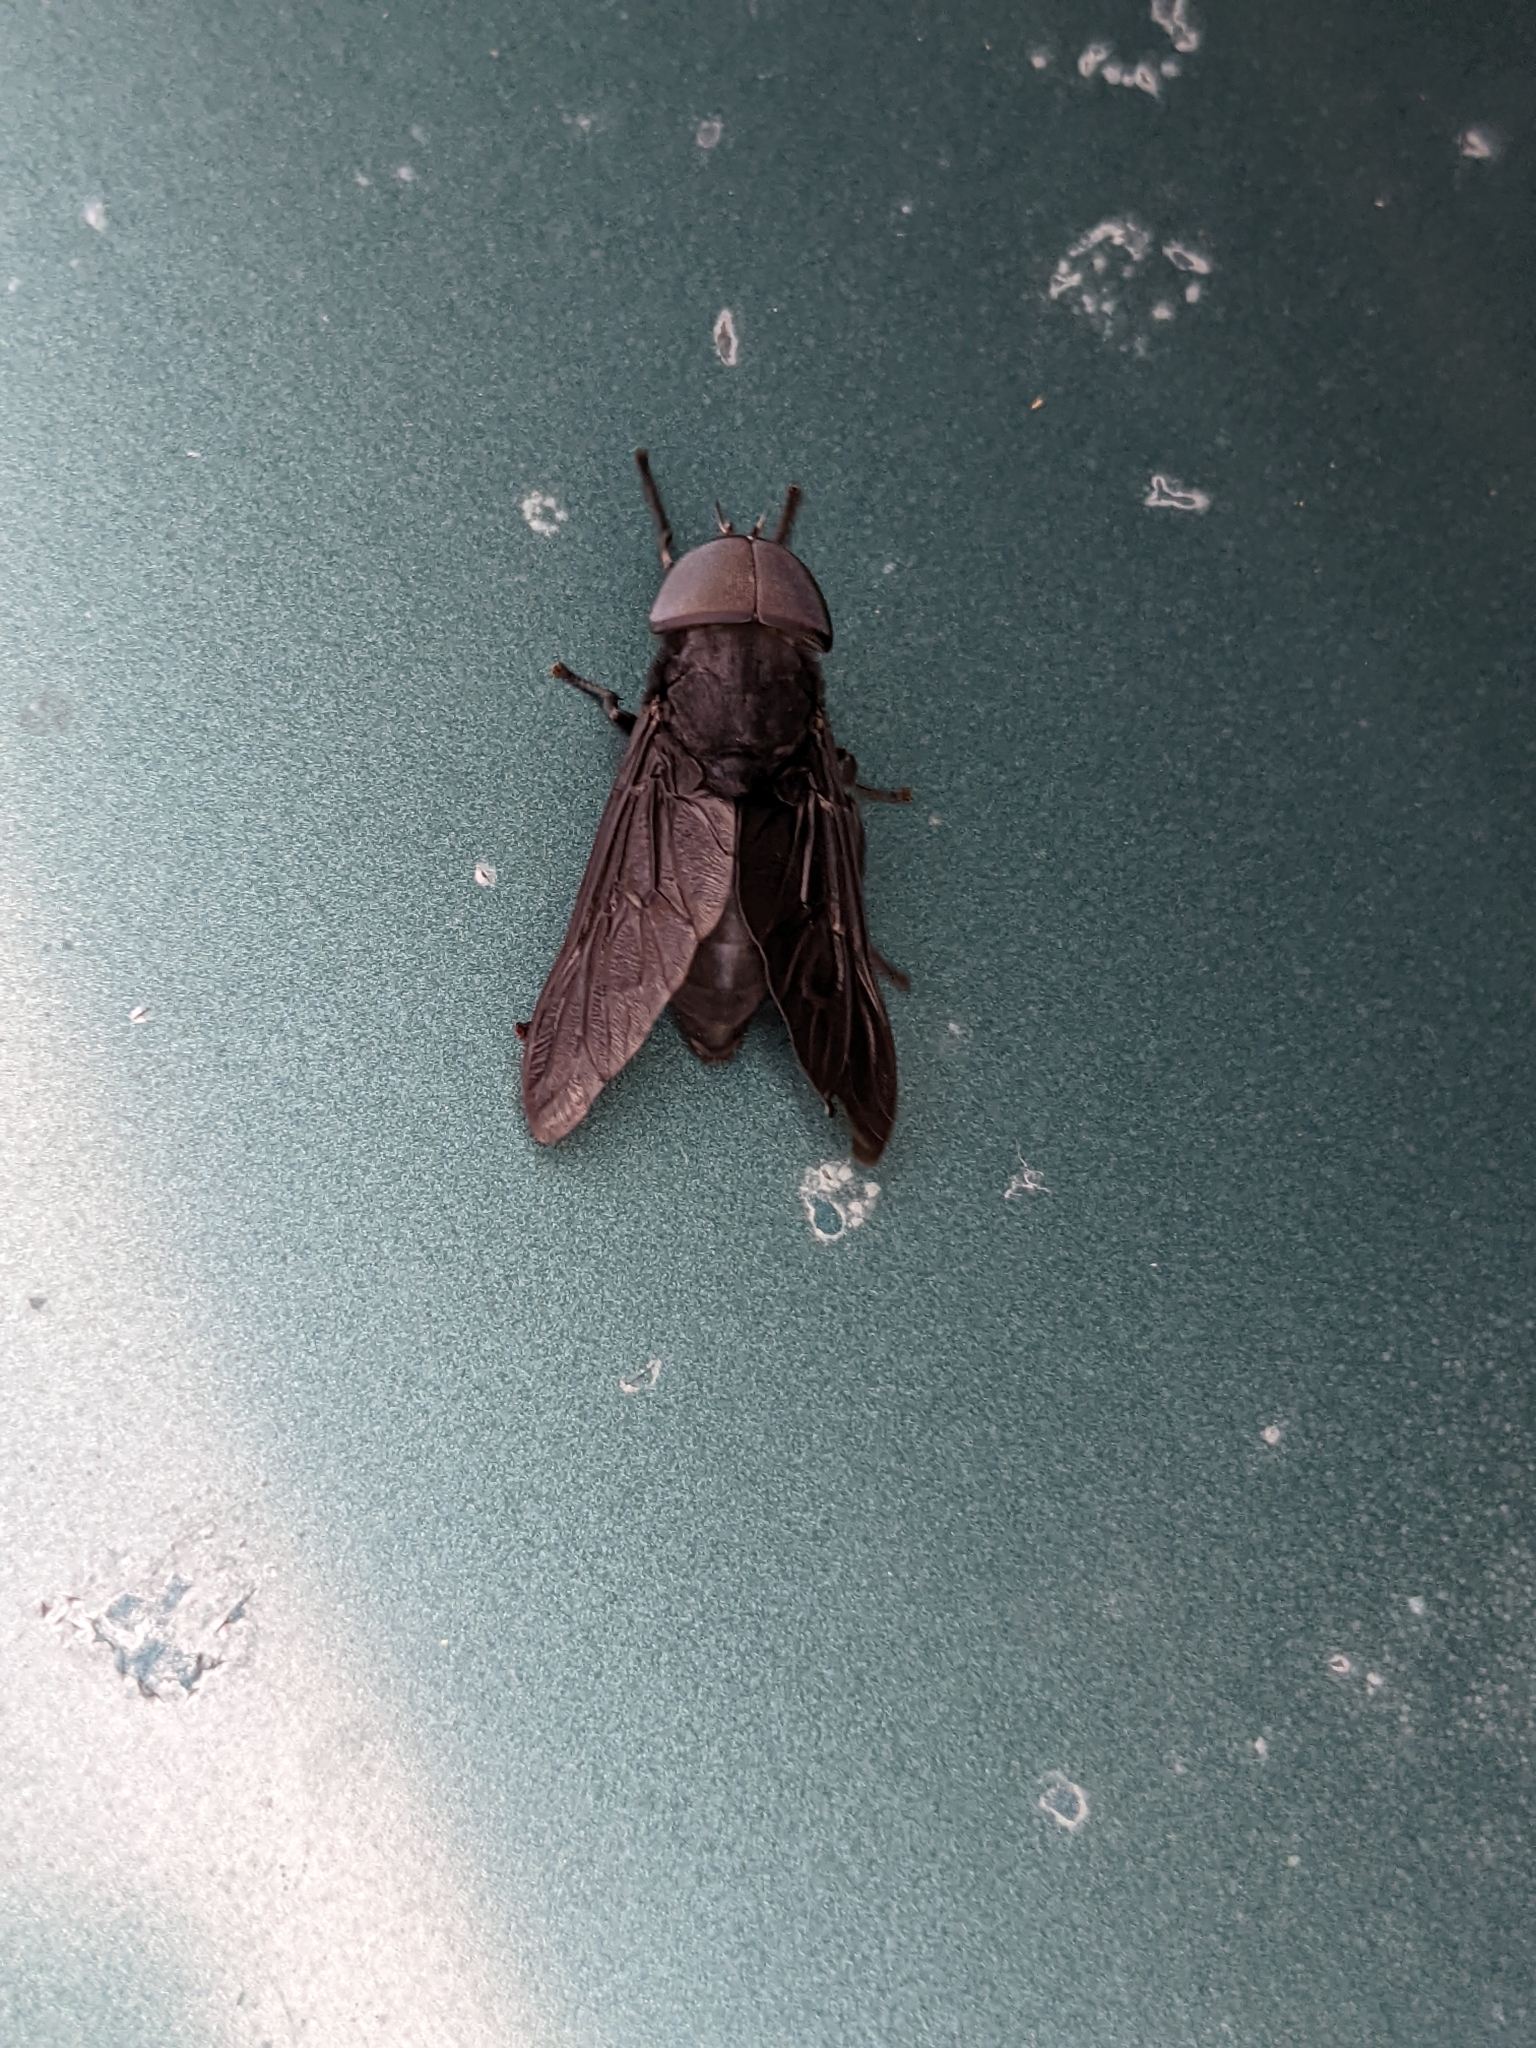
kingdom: Animalia
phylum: Arthropoda
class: Insecta
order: Diptera
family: Tabanidae
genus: Tabanus
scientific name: Tabanus atratus
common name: Black horse fly
